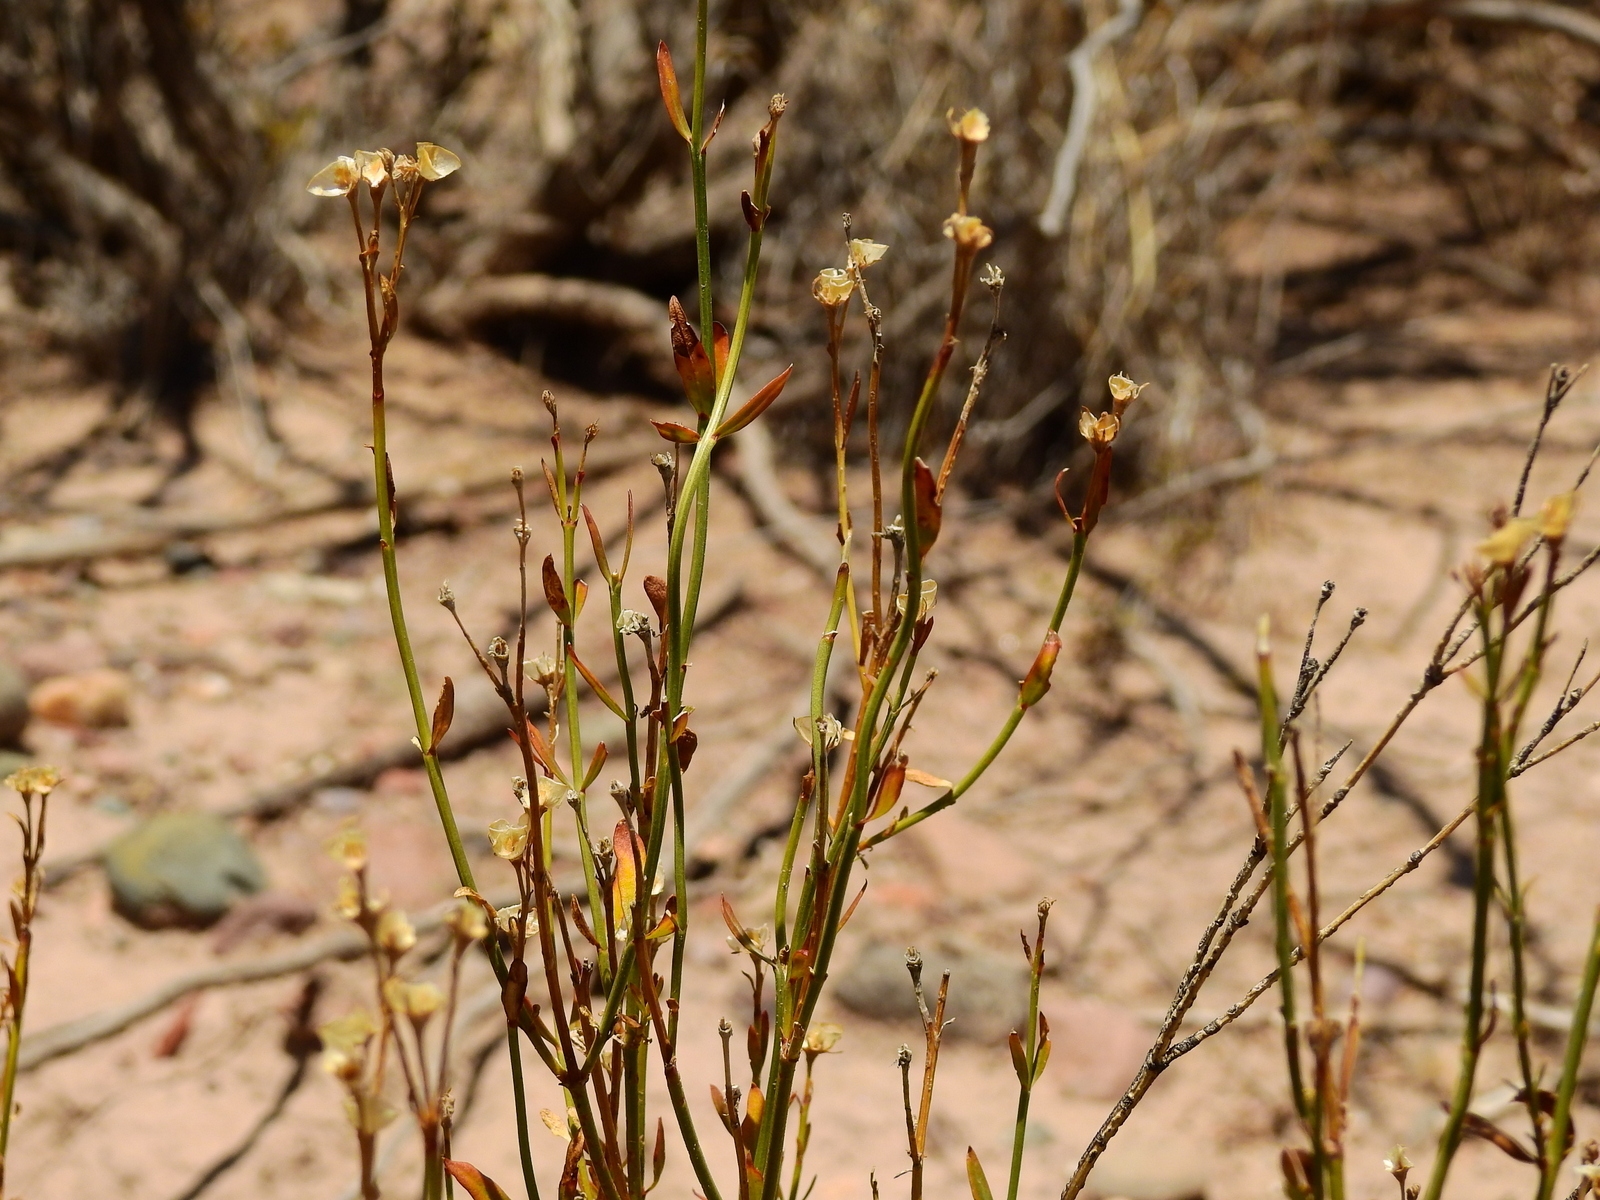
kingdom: Plantae
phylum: Tracheophyta
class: Magnoliopsida
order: Lamiales
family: Oleaceae
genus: Menodora
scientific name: Menodora decemfida
